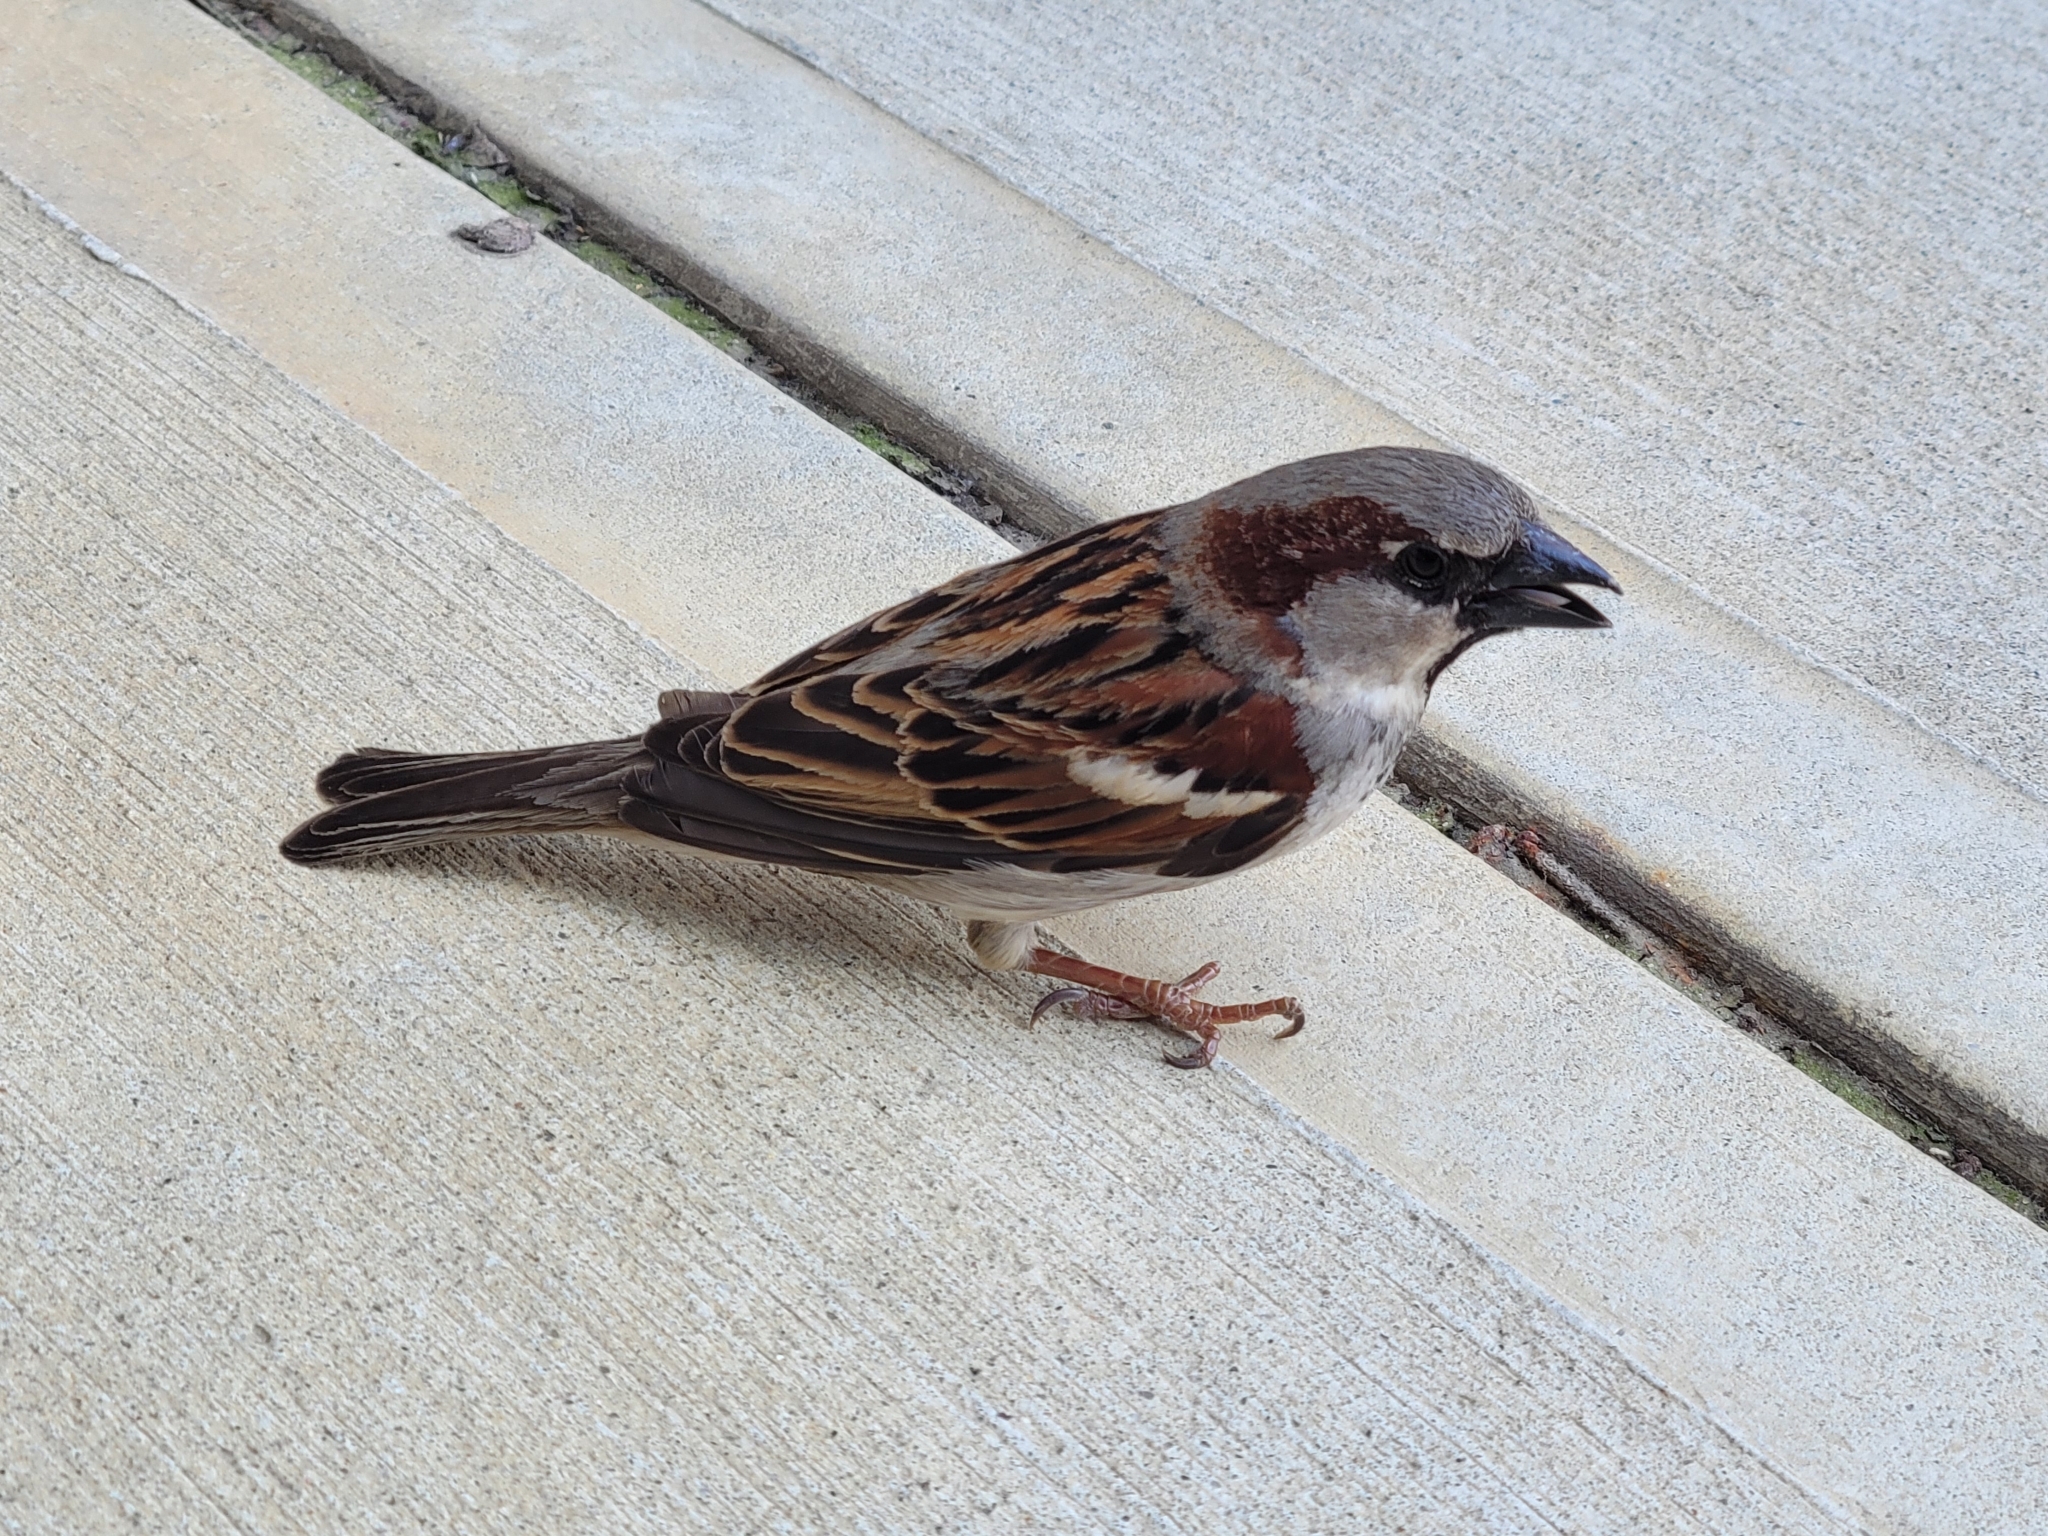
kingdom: Animalia
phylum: Chordata
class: Aves
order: Passeriformes
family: Passeridae
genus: Passer
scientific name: Passer domesticus
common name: House sparrow
